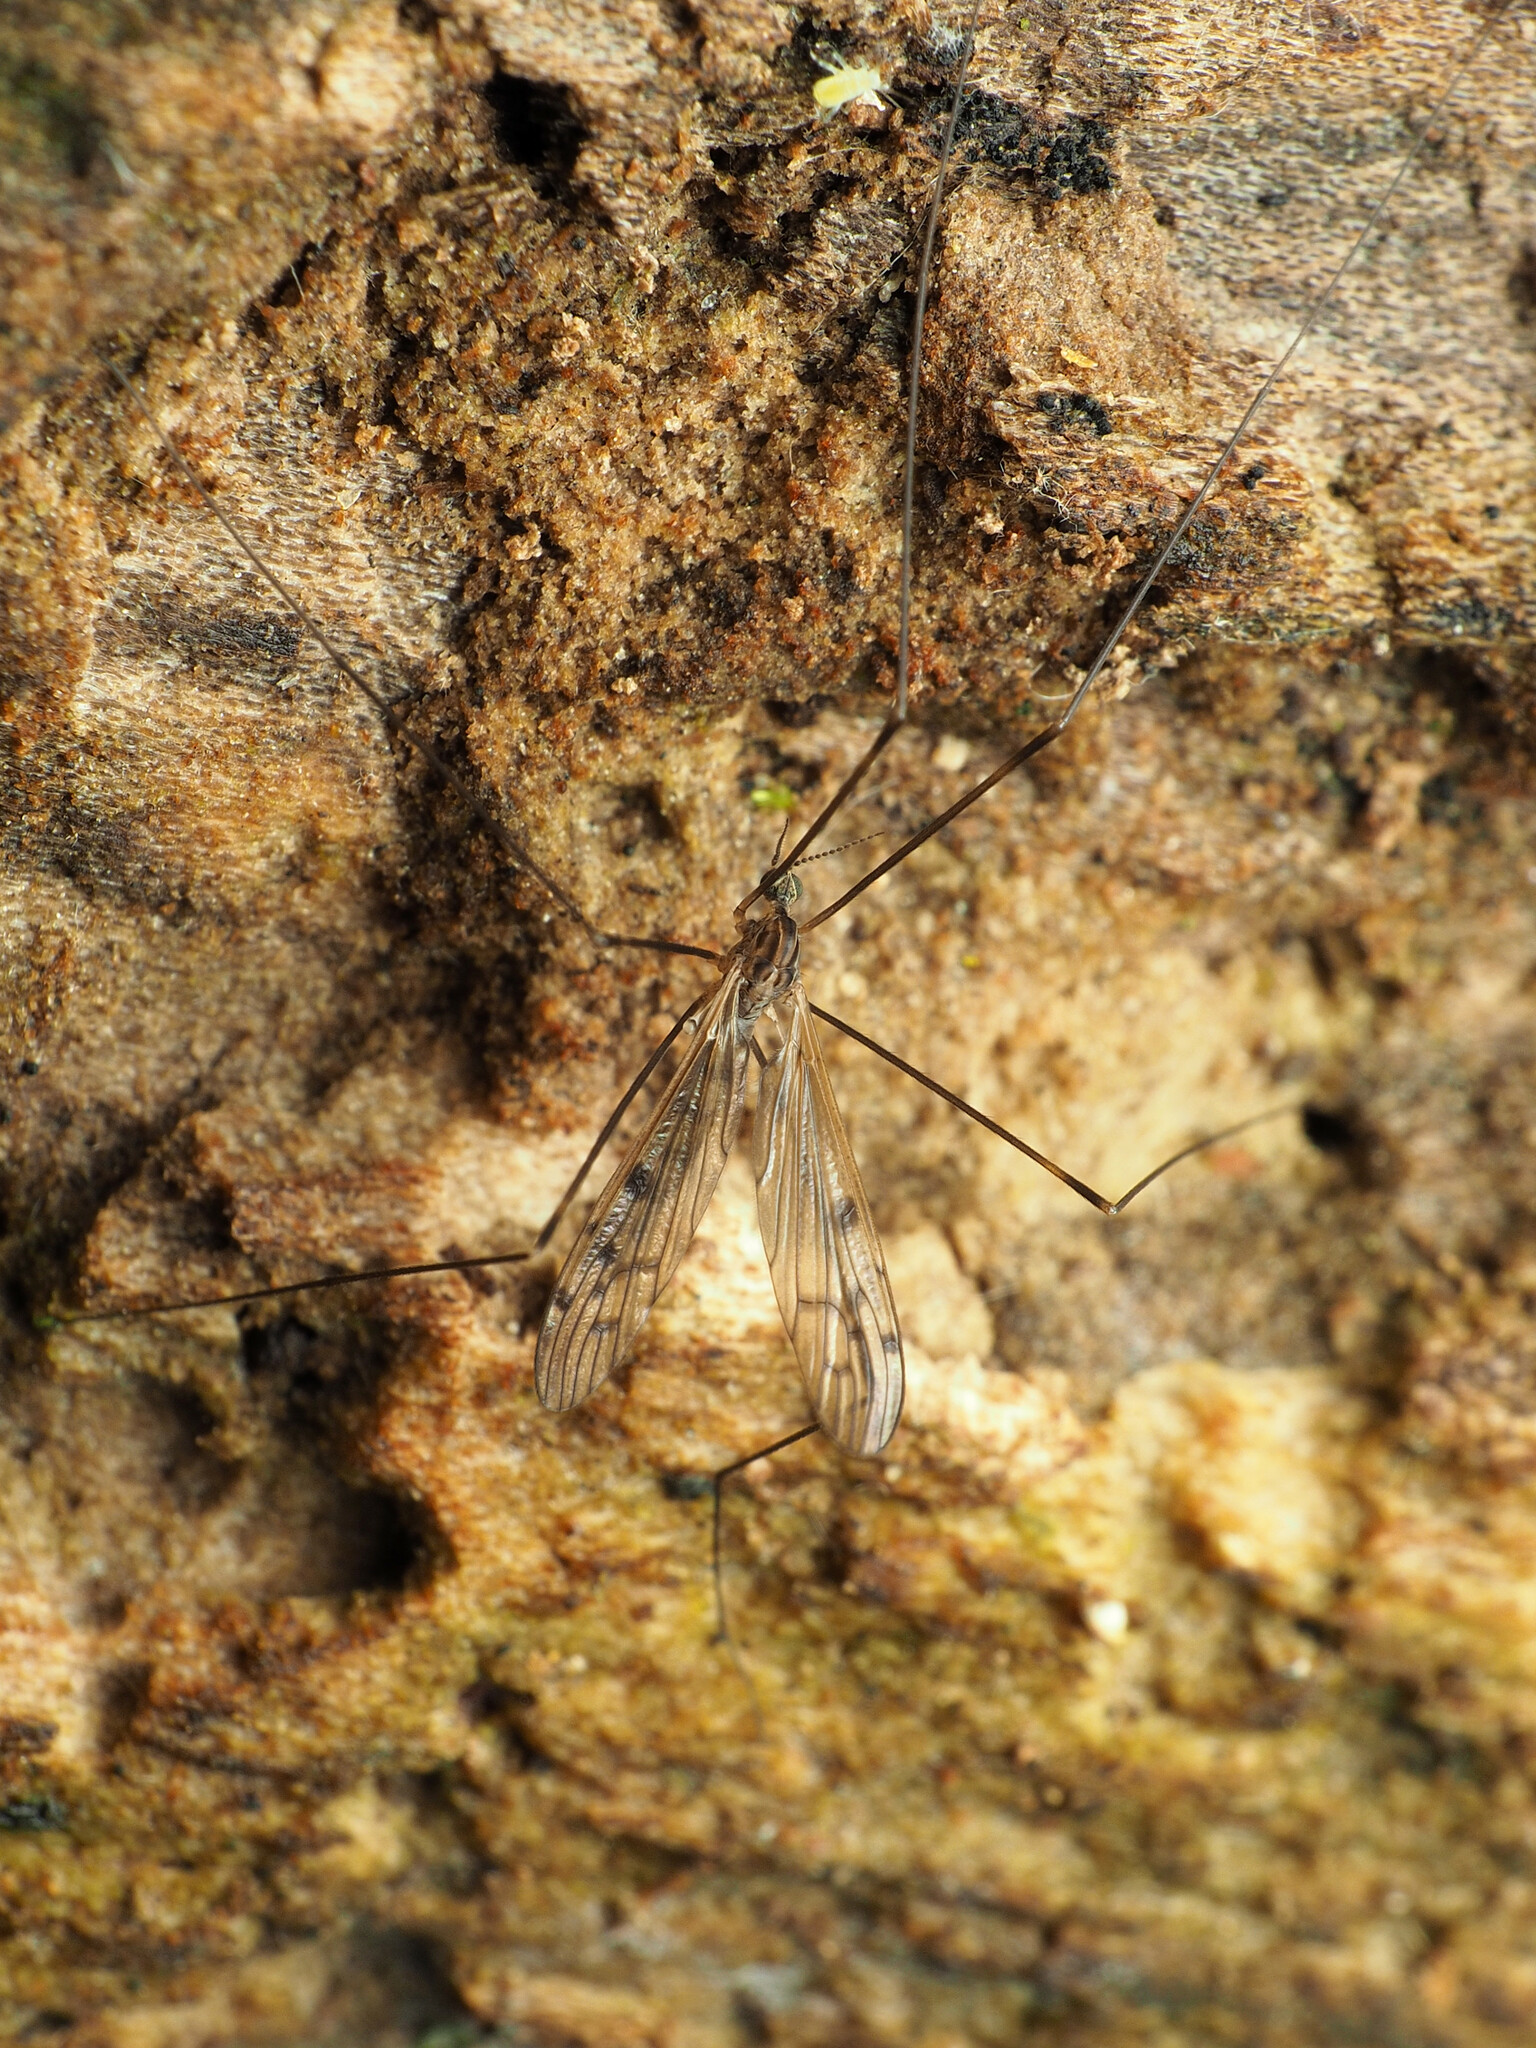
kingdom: Animalia
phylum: Arthropoda
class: Insecta
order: Diptera
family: Limoniidae
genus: Metalimnobia
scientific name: Metalimnobia novaeangliae
